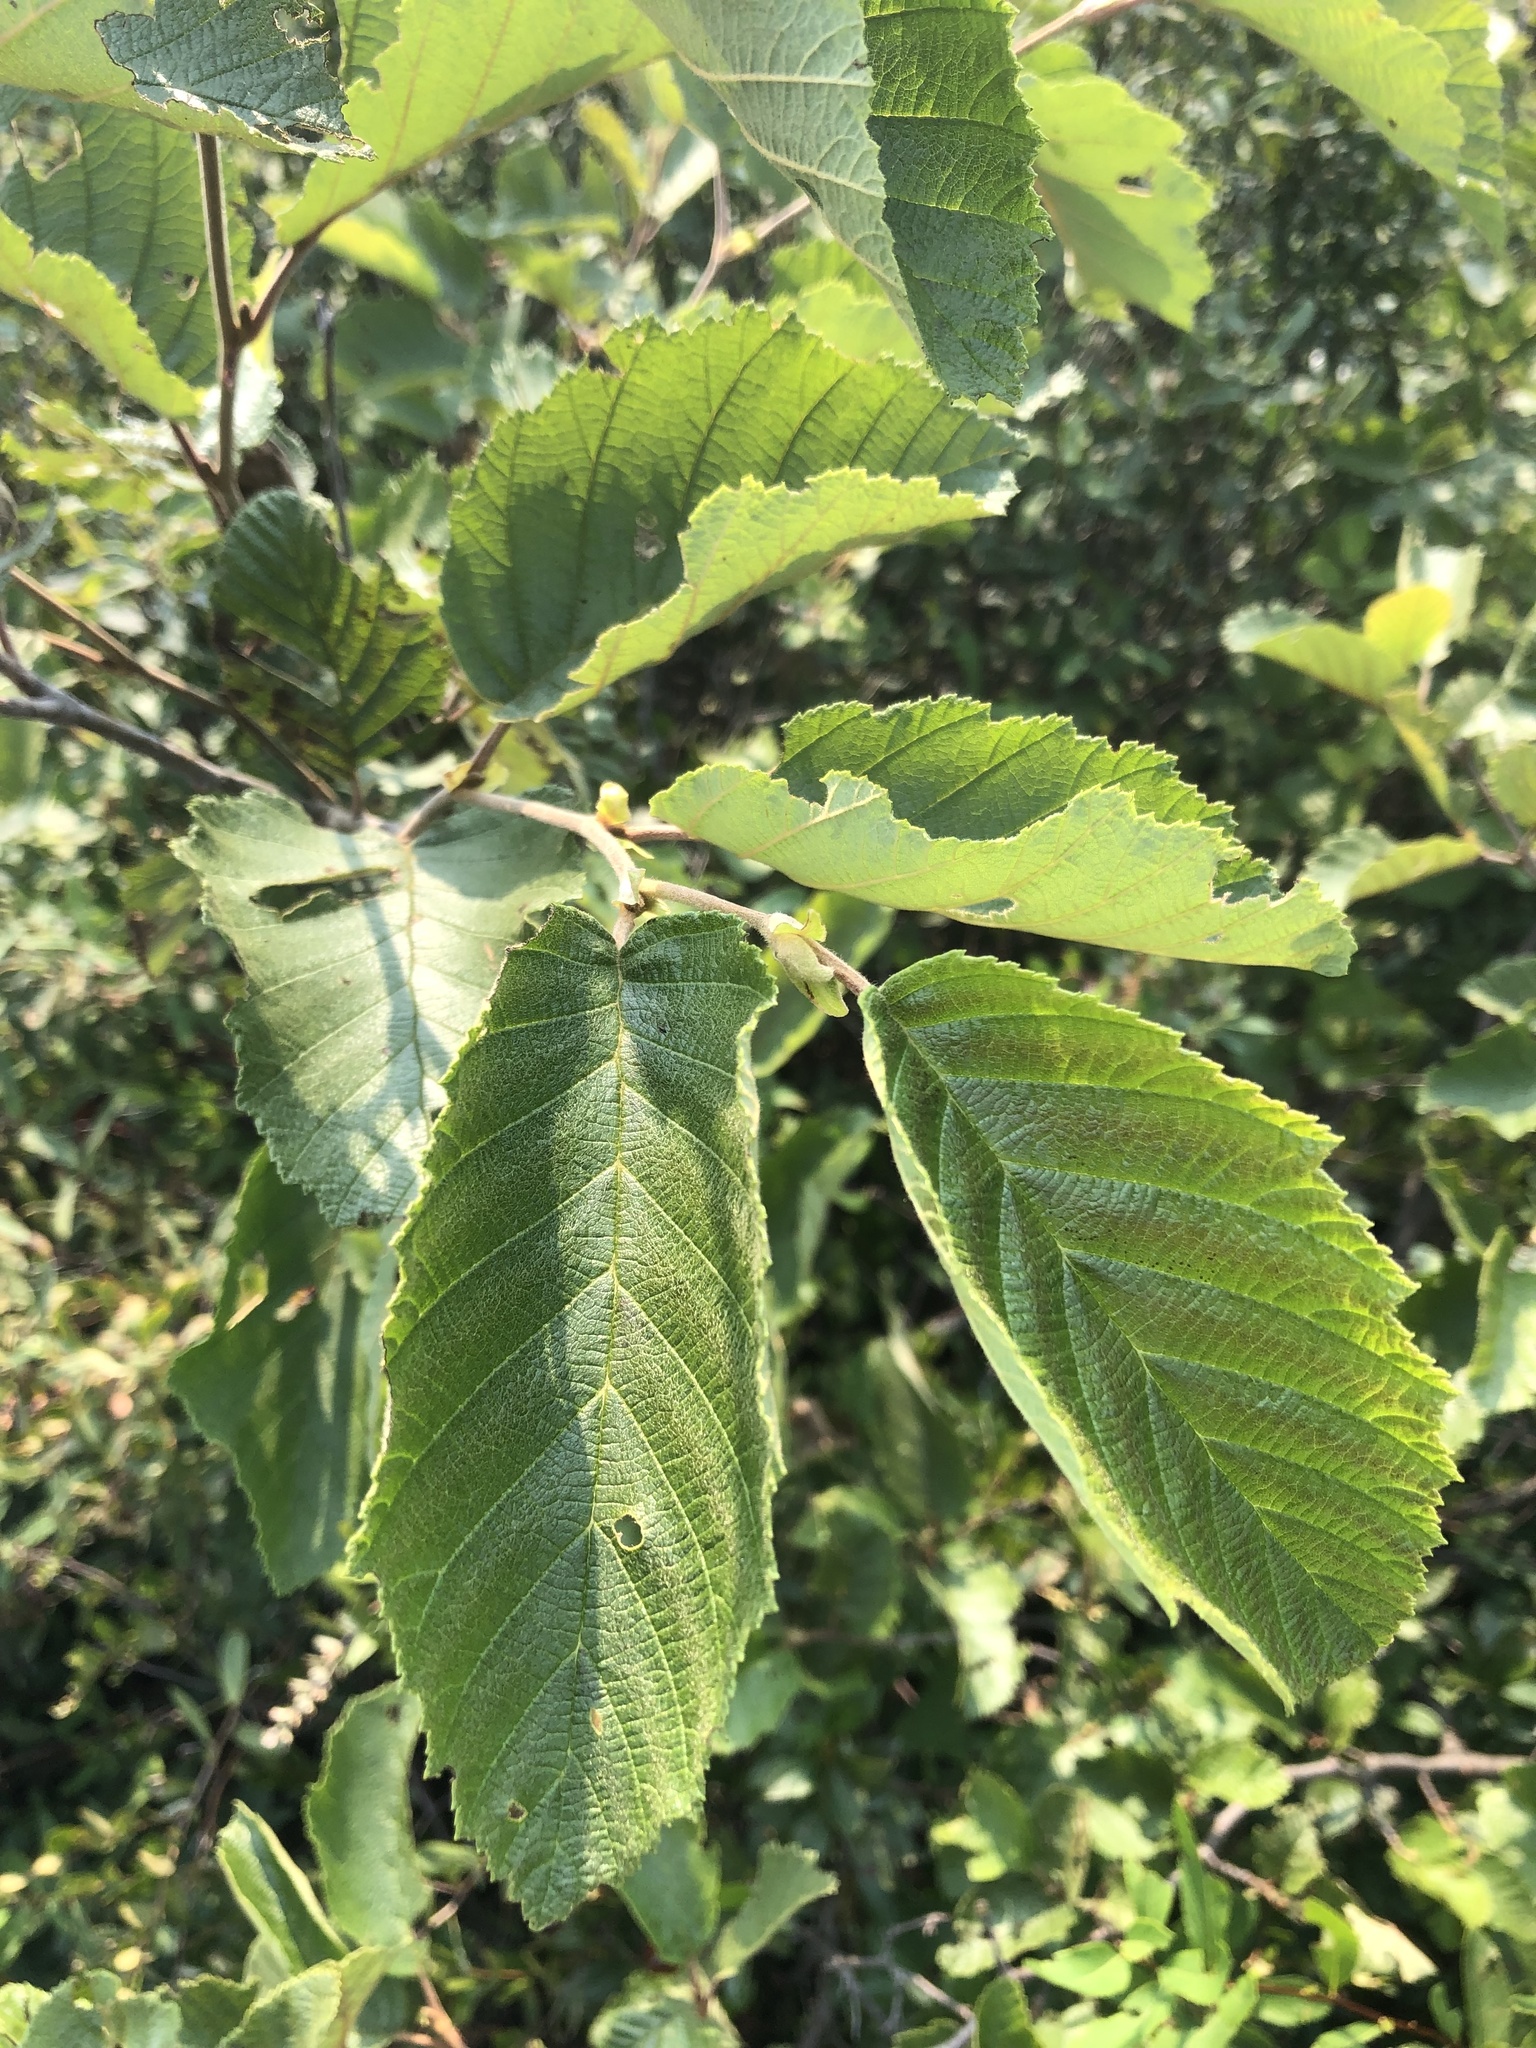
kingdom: Plantae
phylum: Tracheophyta
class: Magnoliopsida
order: Fagales
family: Betulaceae
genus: Alnus
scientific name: Alnus incana
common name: Grey alder
